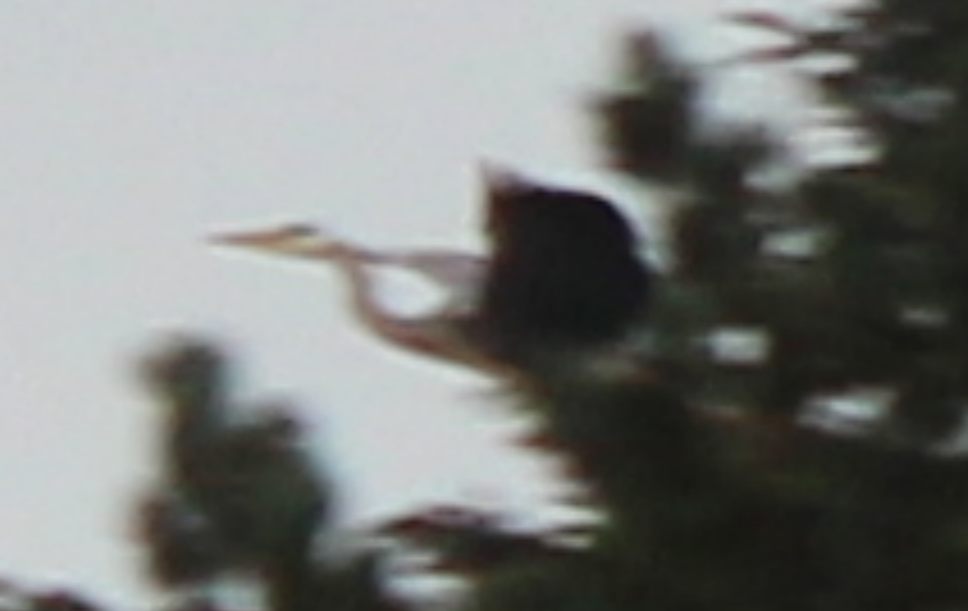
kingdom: Animalia
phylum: Chordata
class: Aves
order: Pelecaniformes
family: Ardeidae
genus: Ardea
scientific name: Ardea cinerea
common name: Grey heron
